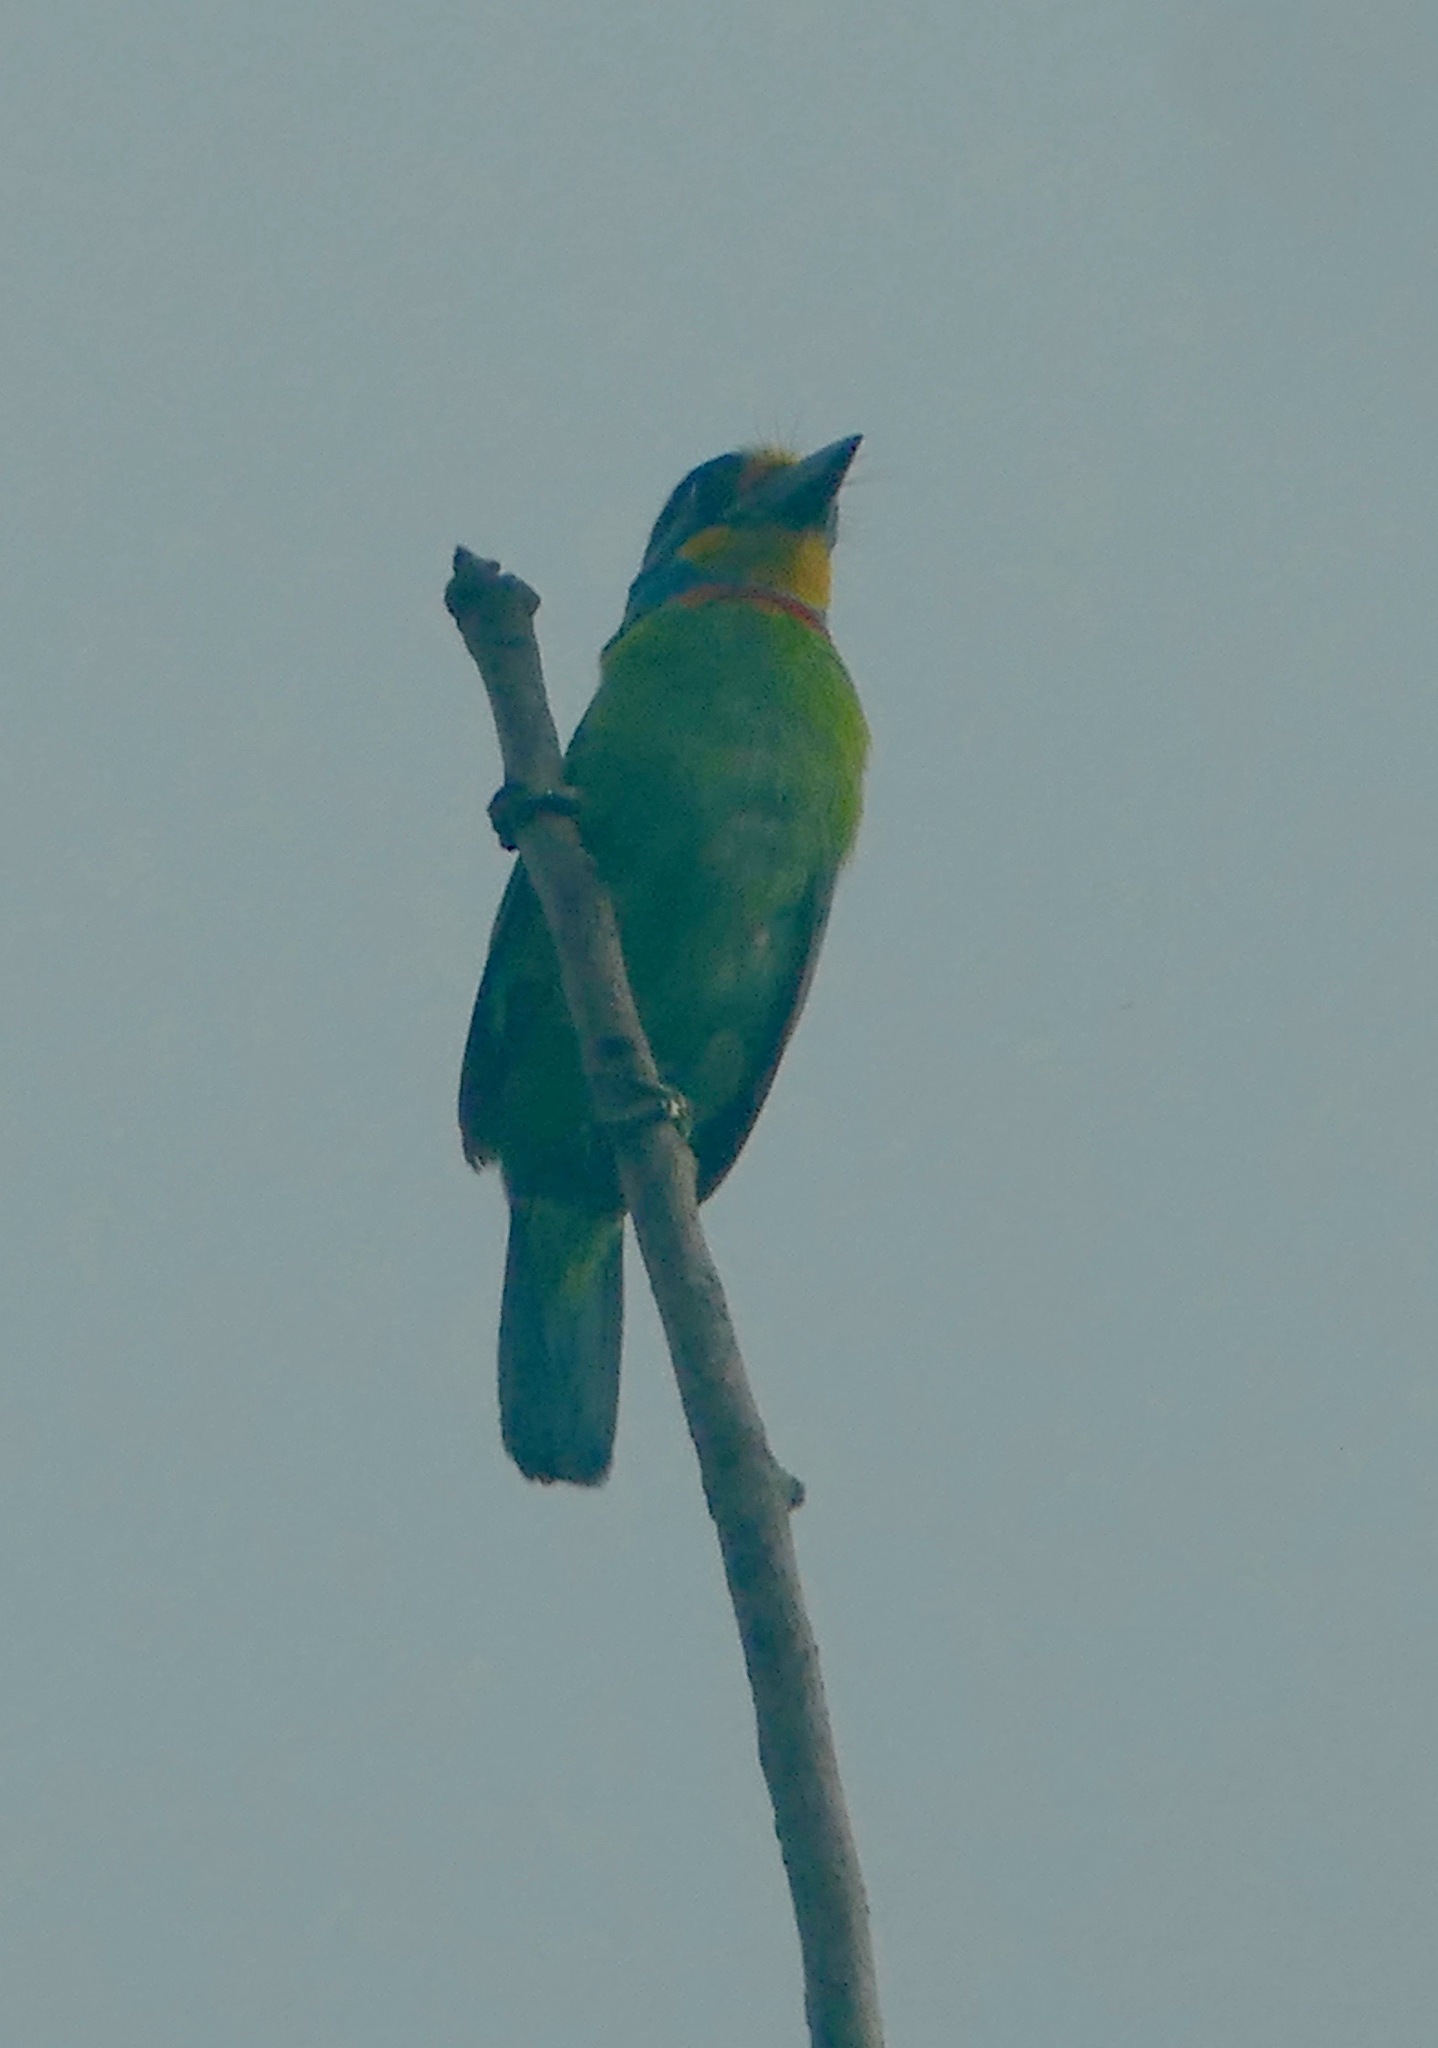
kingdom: Animalia
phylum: Chordata
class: Aves
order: Piciformes
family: Megalaimidae
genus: Psilopogon
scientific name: Psilopogon nuchalis
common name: Taiwan barbet
